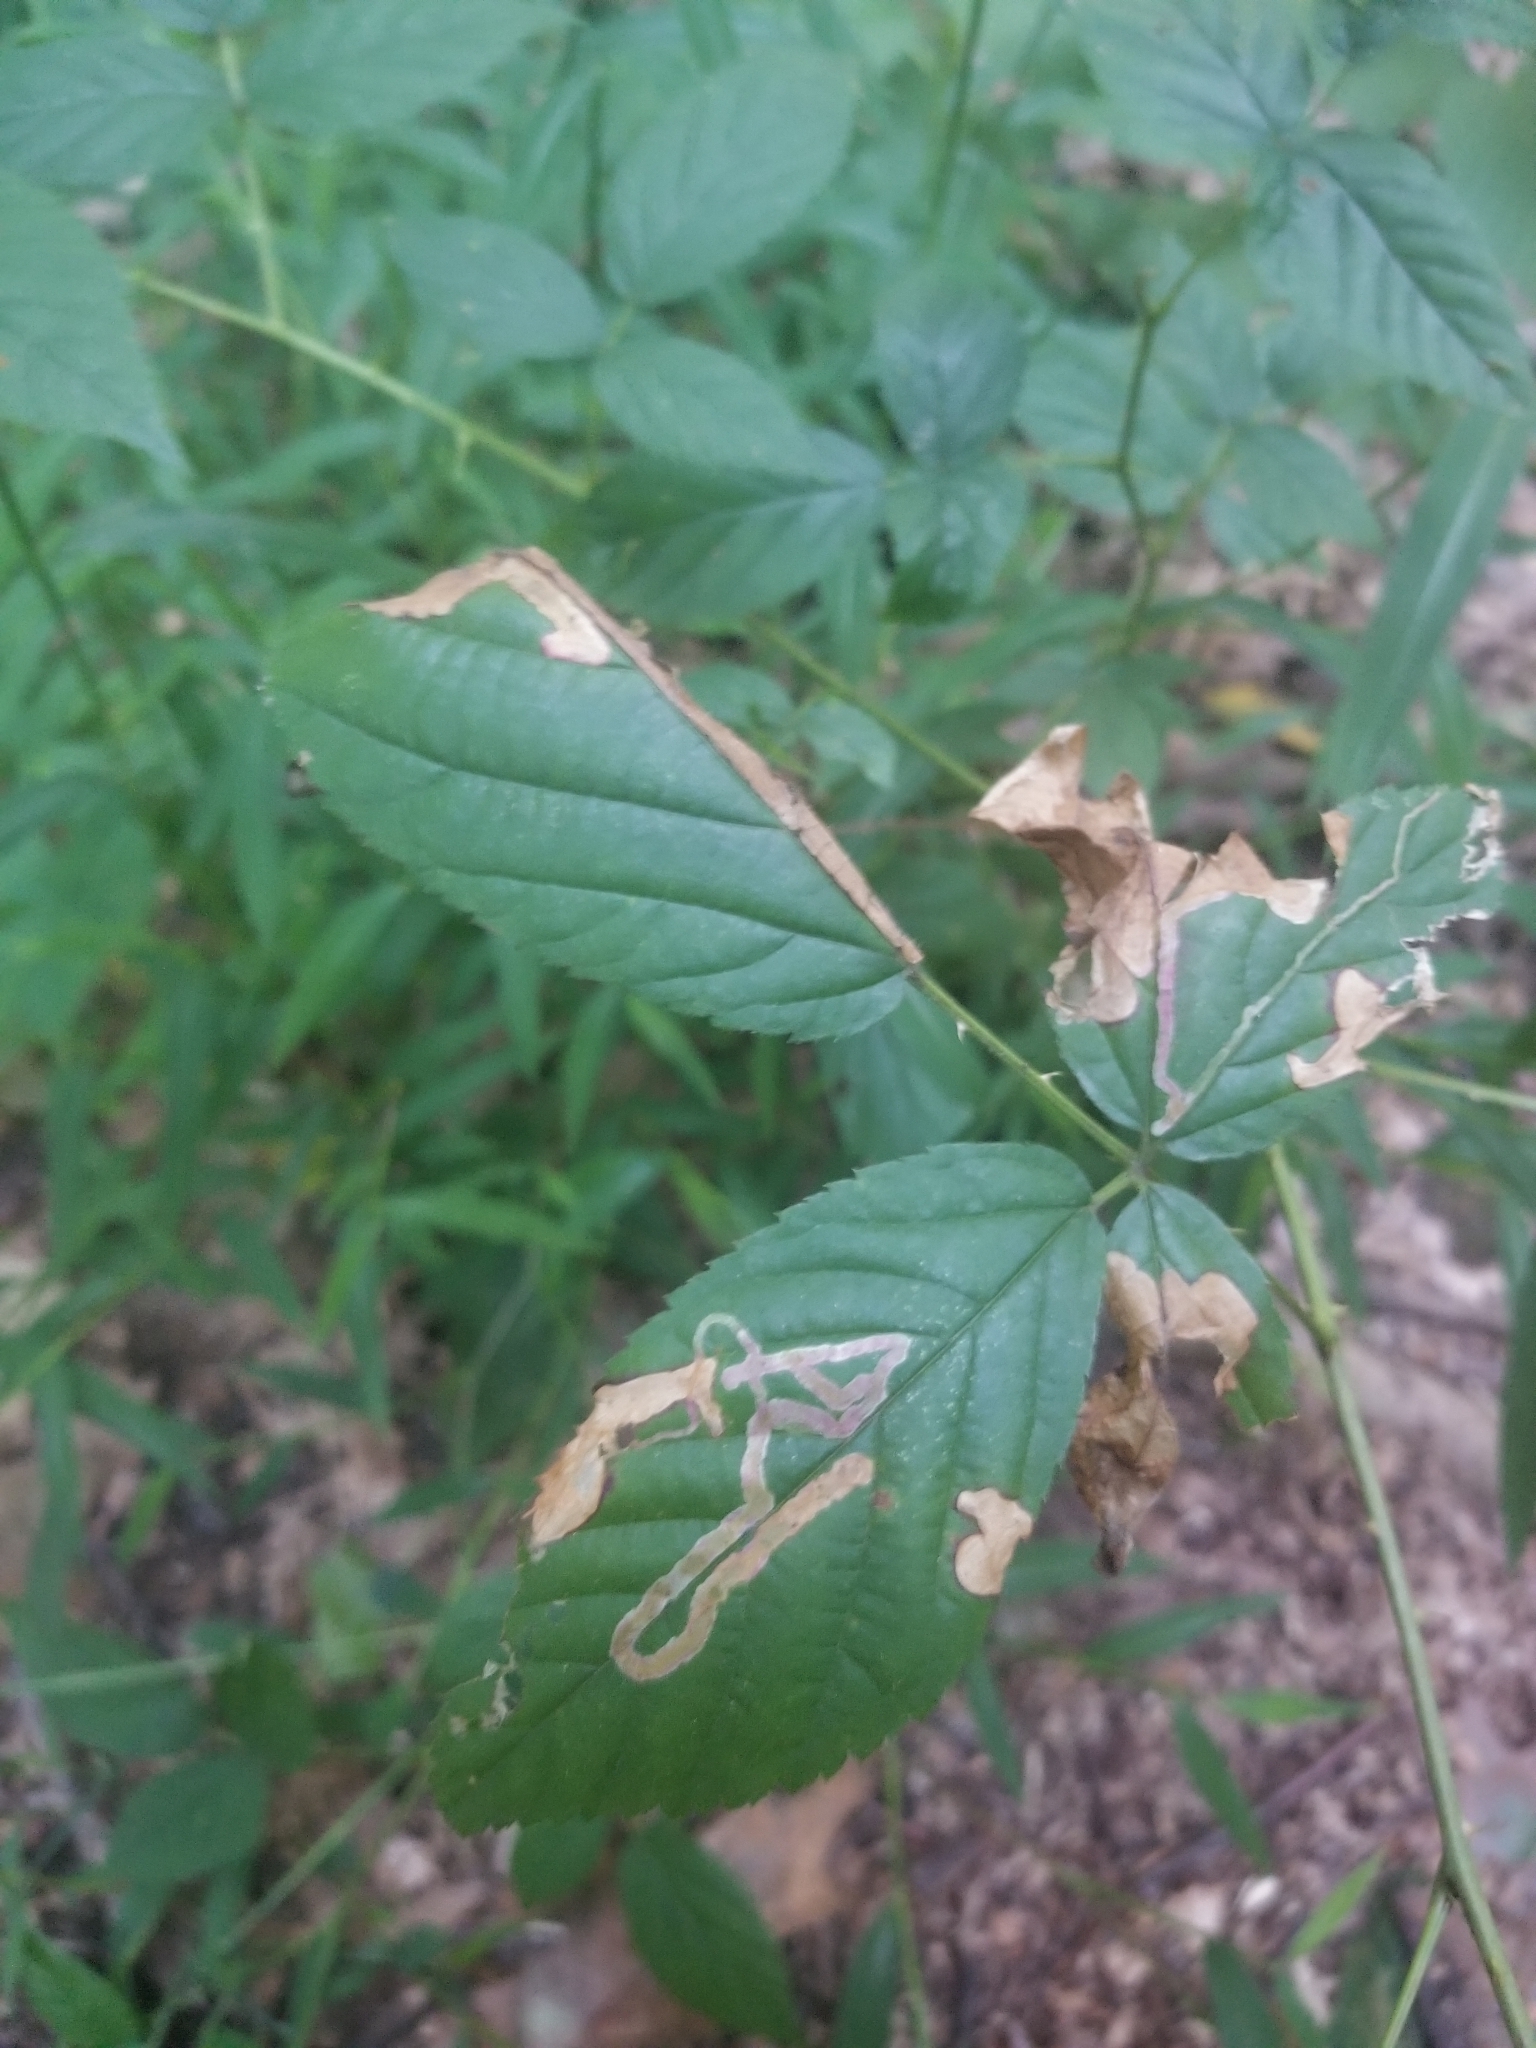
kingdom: Animalia
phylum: Arthropoda
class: Insecta
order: Diptera
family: Agromyzidae
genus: Agromyza
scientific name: Agromyza vockerothi
